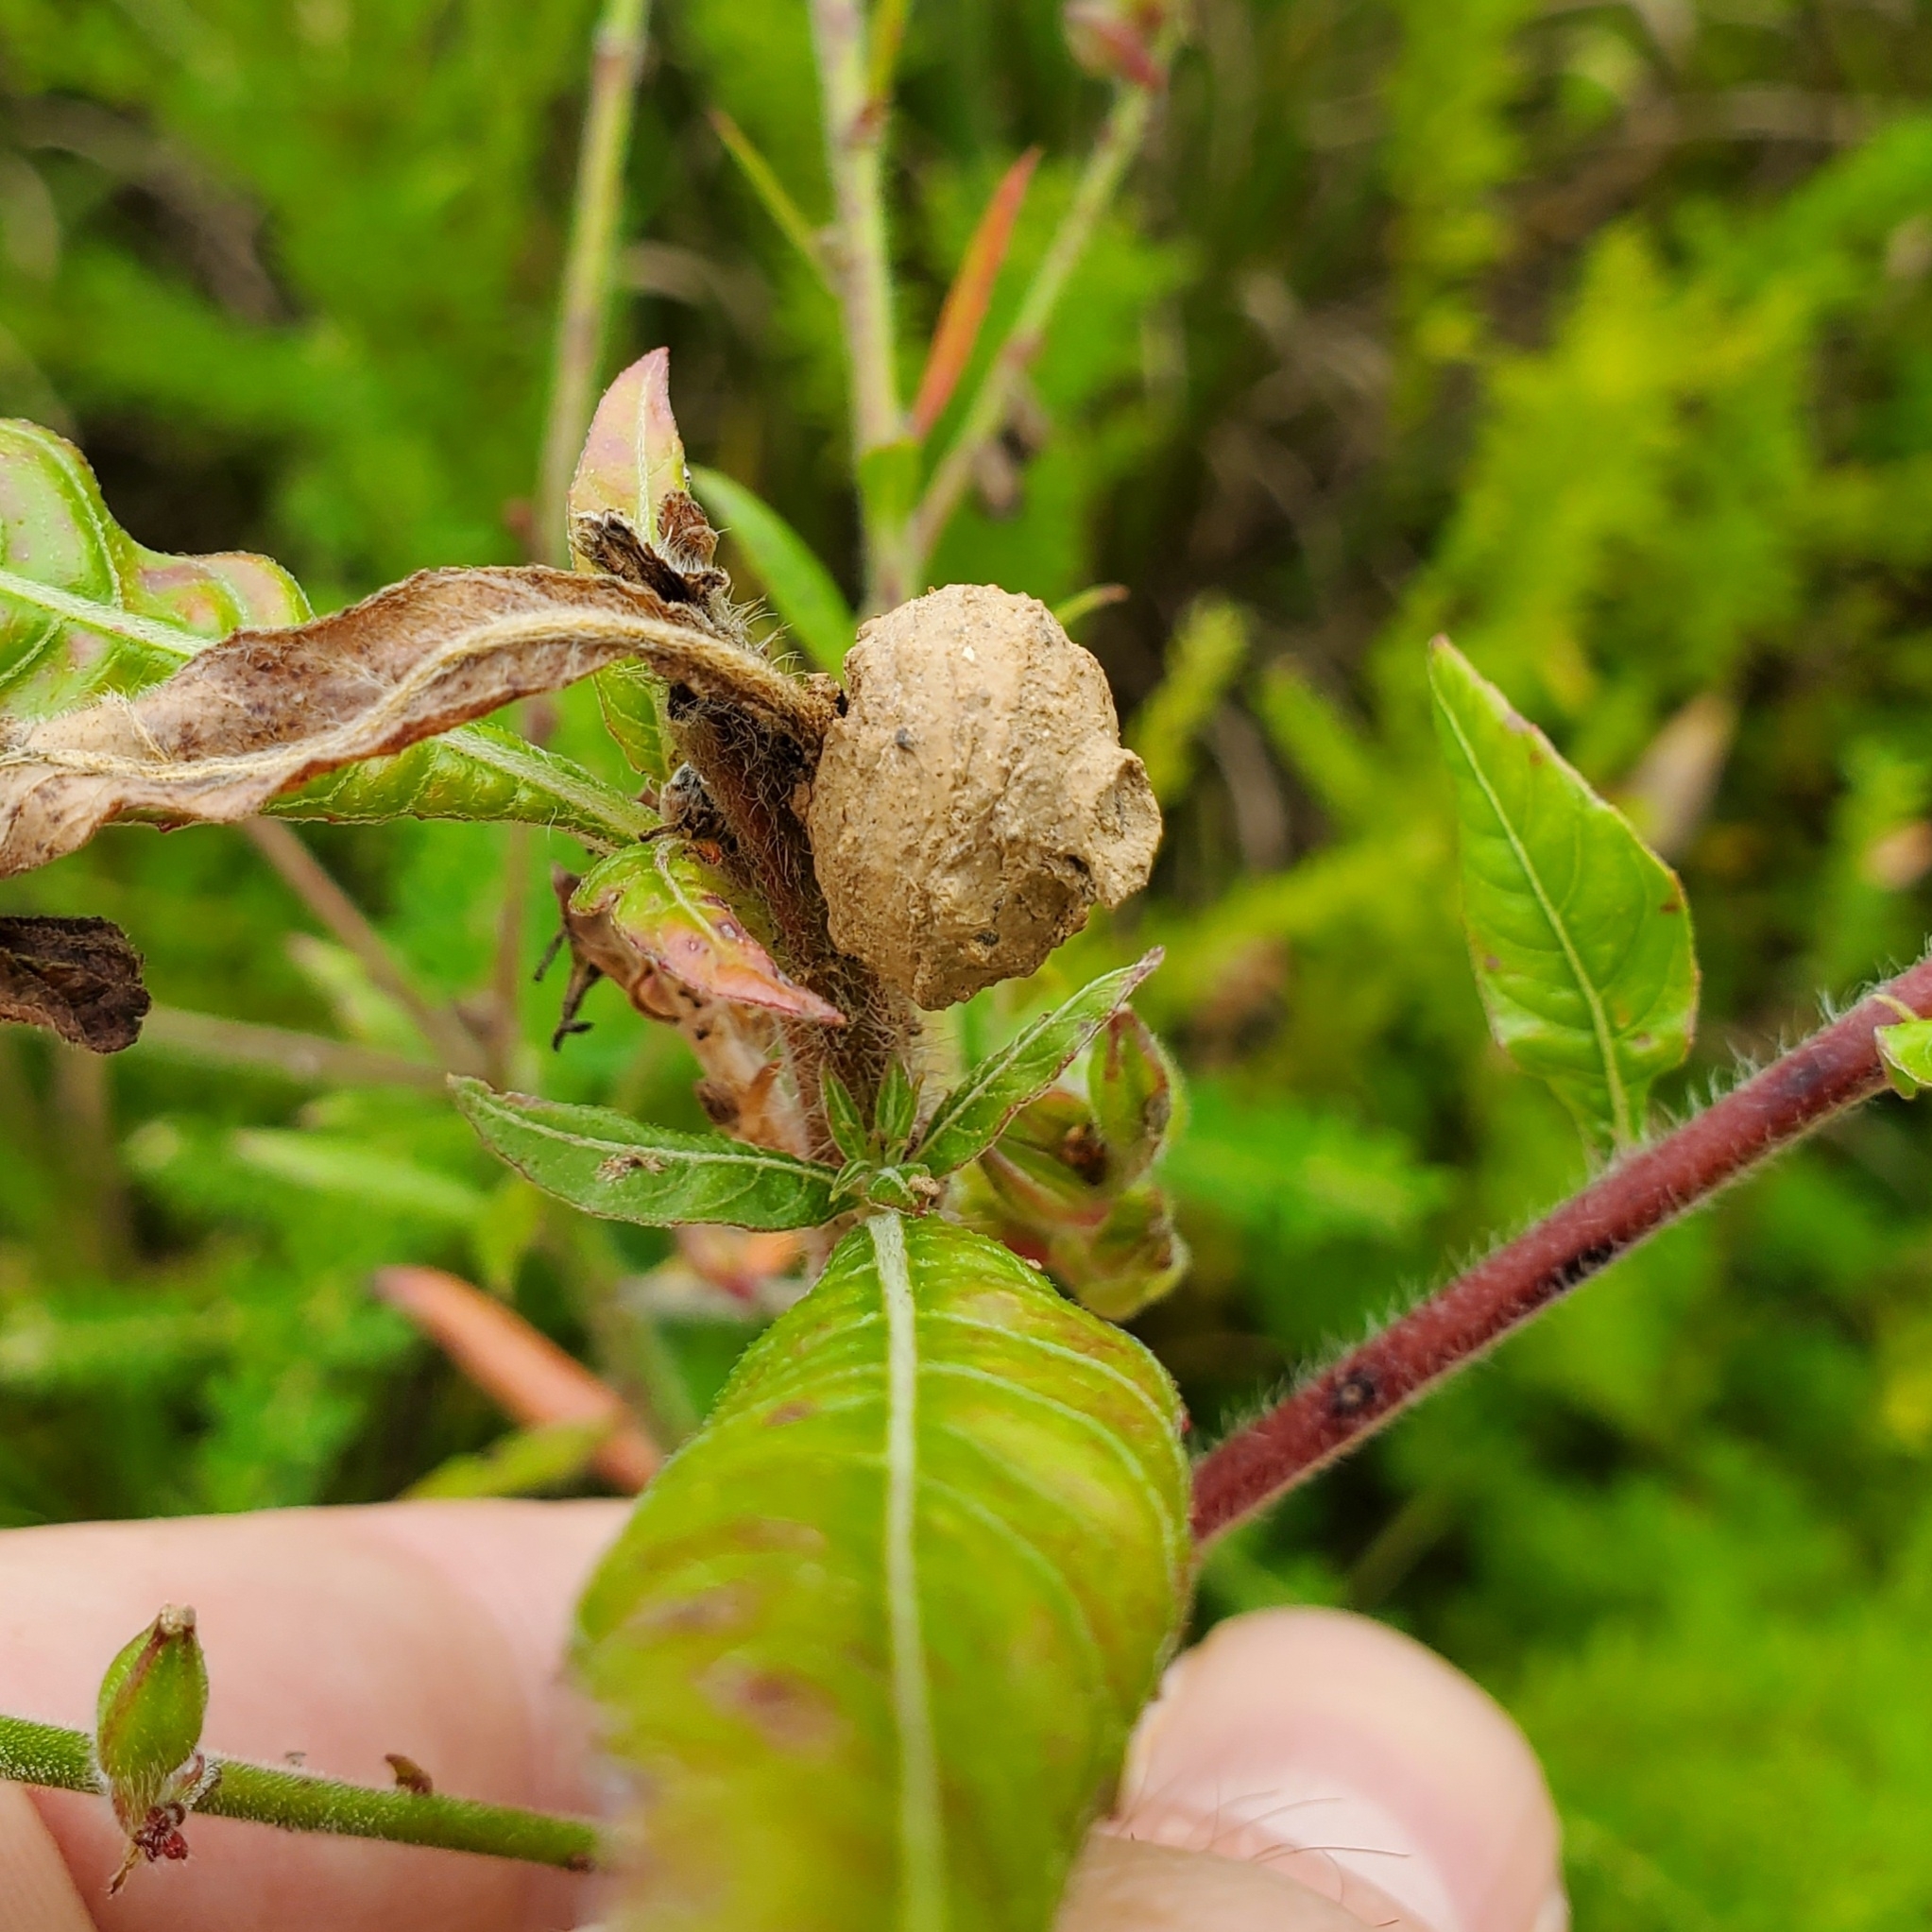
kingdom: Animalia
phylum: Arthropoda
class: Insecta
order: Hymenoptera
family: Vespidae
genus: Eumenes
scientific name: Eumenes
